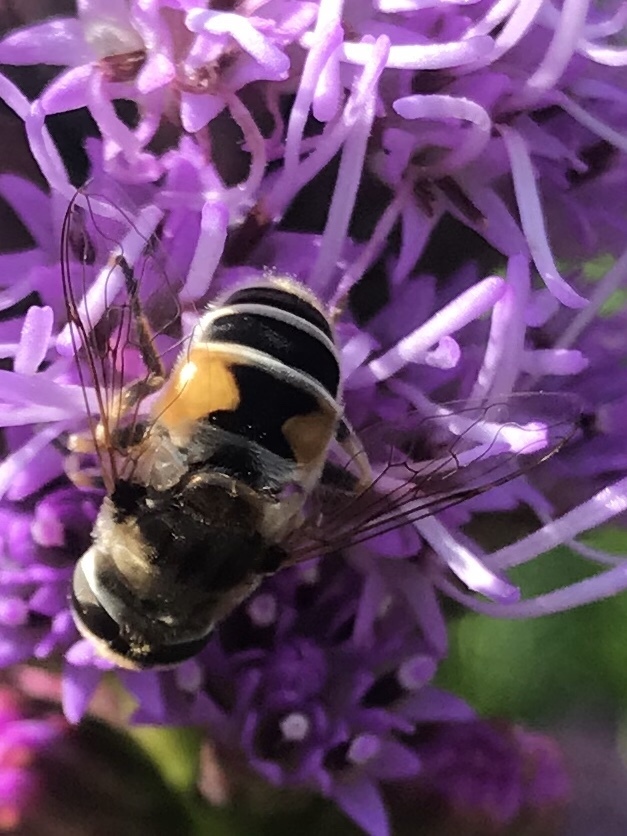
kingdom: Animalia
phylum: Arthropoda
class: Insecta
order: Diptera
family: Syrphidae
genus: Eristalis
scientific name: Eristalis arbustorum
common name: Hover fly
